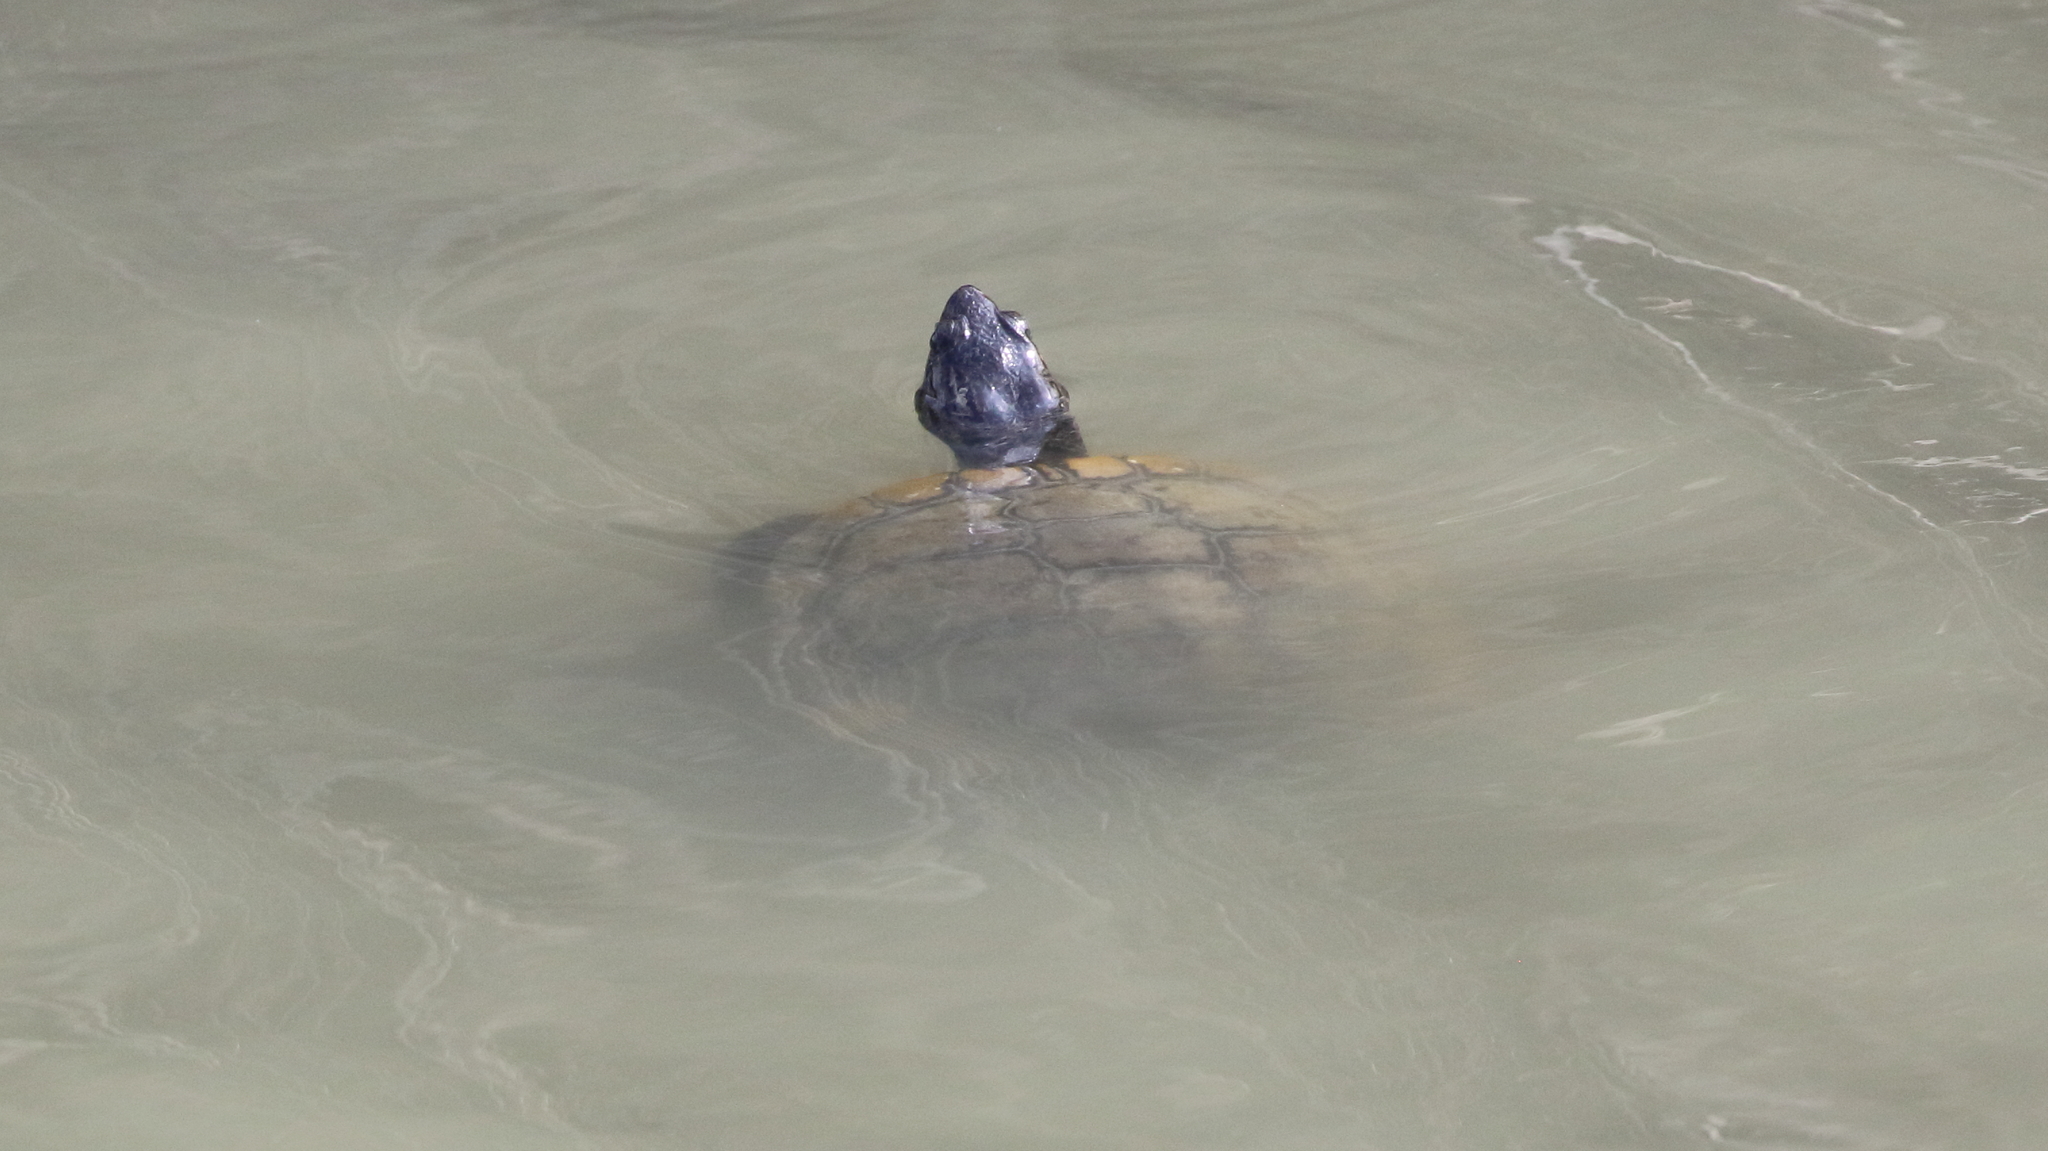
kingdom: Animalia
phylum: Chordata
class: Testudines
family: Emydidae
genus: Trachemys
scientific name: Trachemys scripta
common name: Slider
